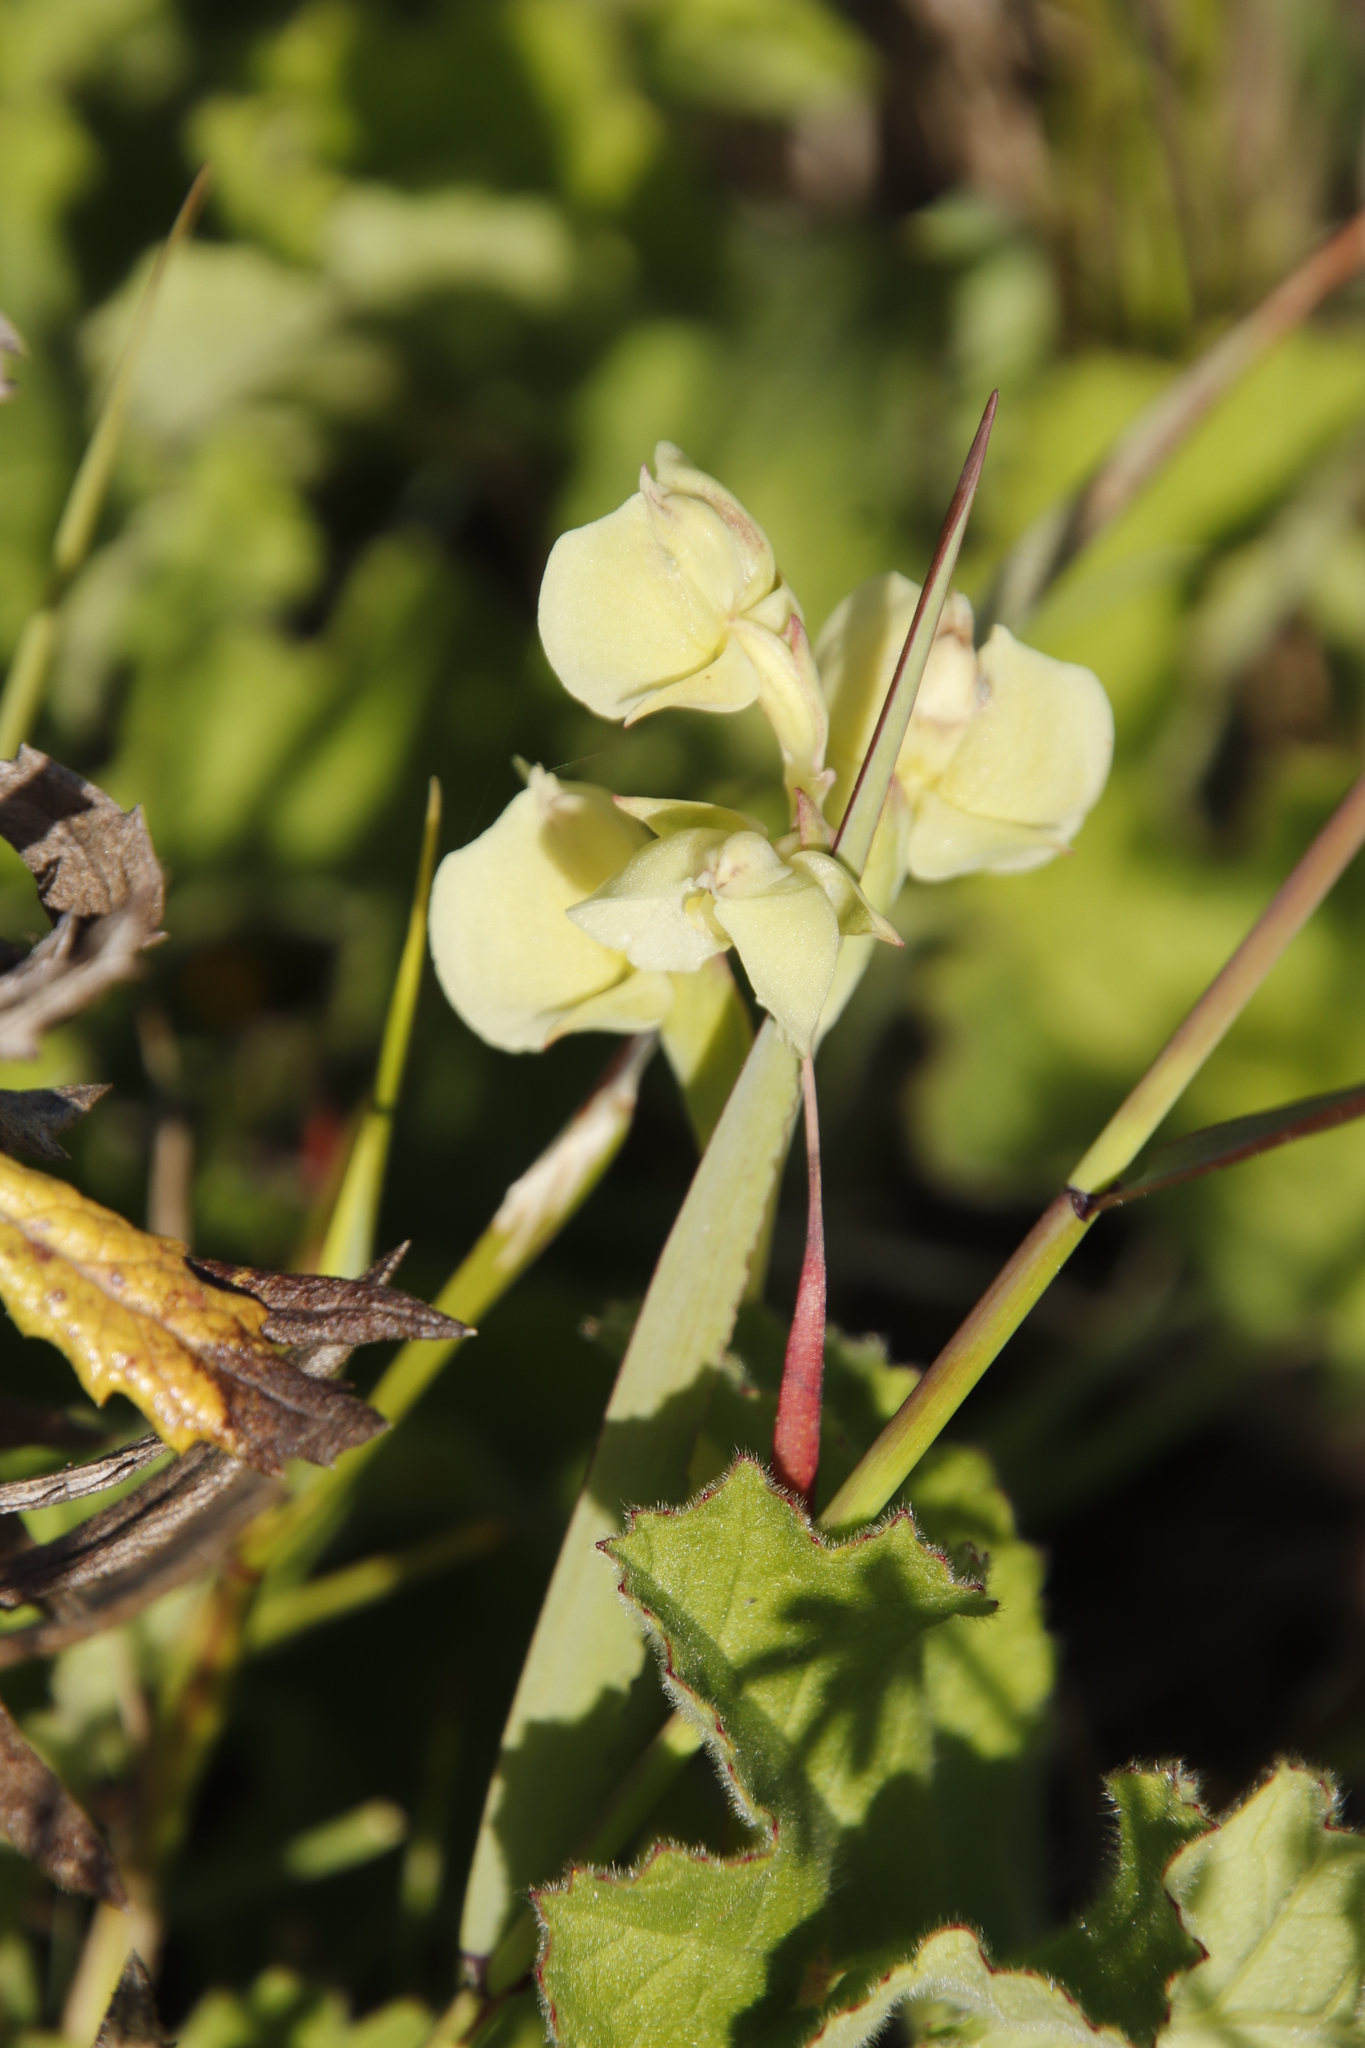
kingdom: Plantae
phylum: Tracheophyta
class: Liliopsida
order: Asparagales
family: Orchidaceae
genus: Pterygodium
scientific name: Pterygodium catholicum
